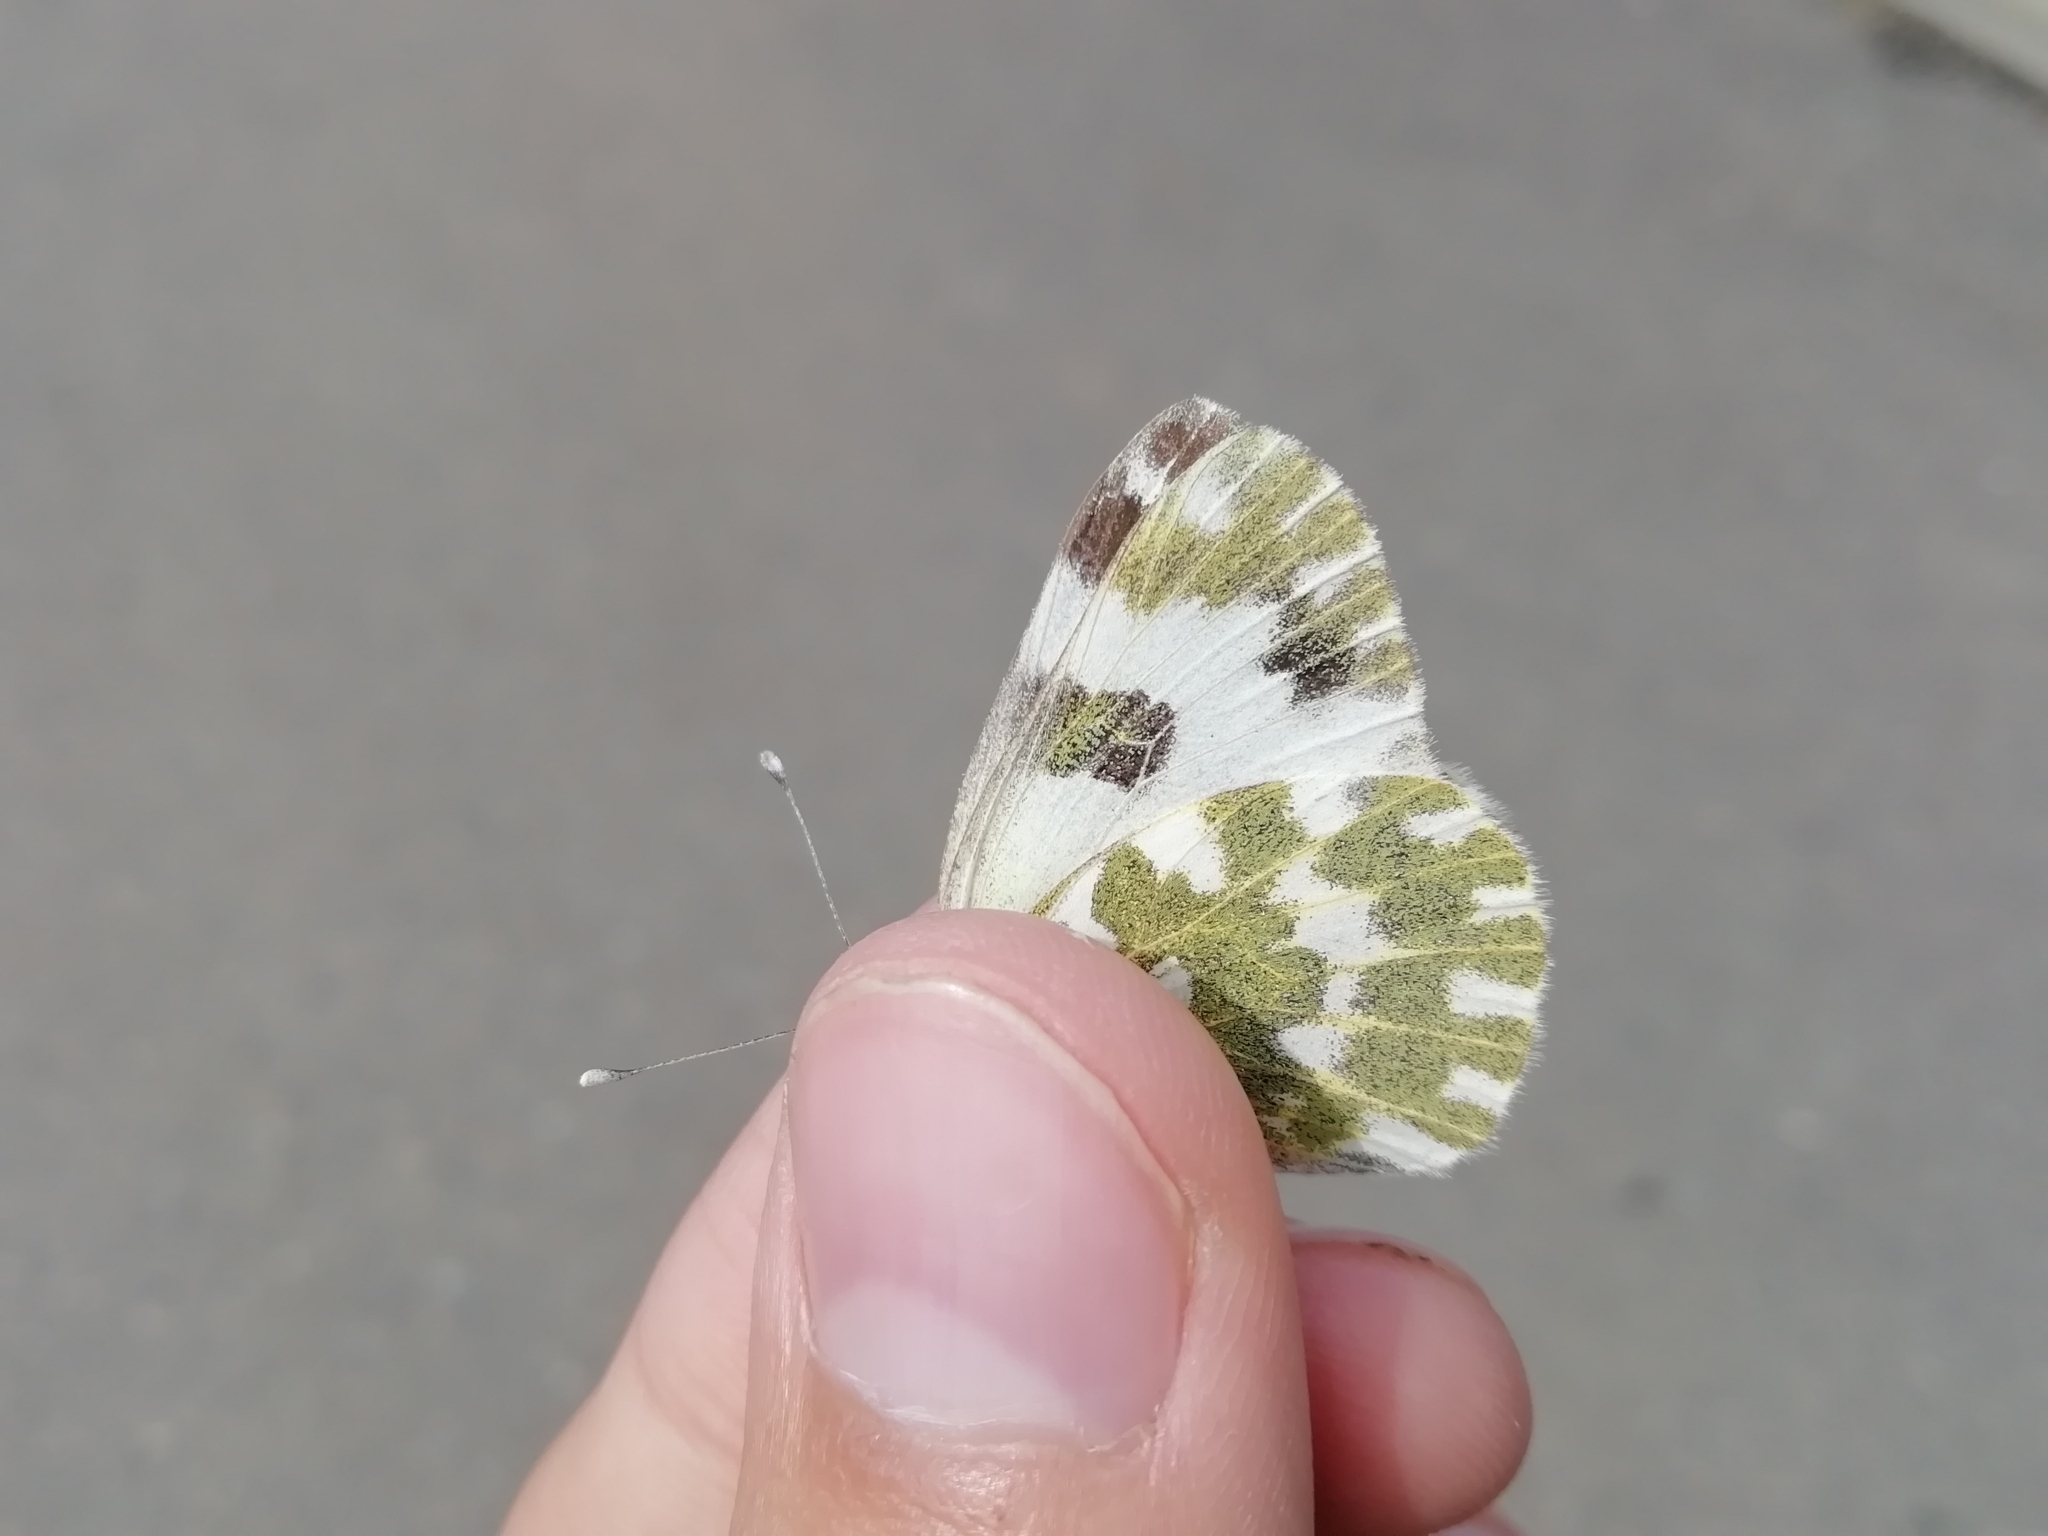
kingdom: Animalia
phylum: Arthropoda
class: Insecta
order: Lepidoptera
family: Pieridae
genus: Pontia
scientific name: Pontia edusa
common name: Eastern bath white
